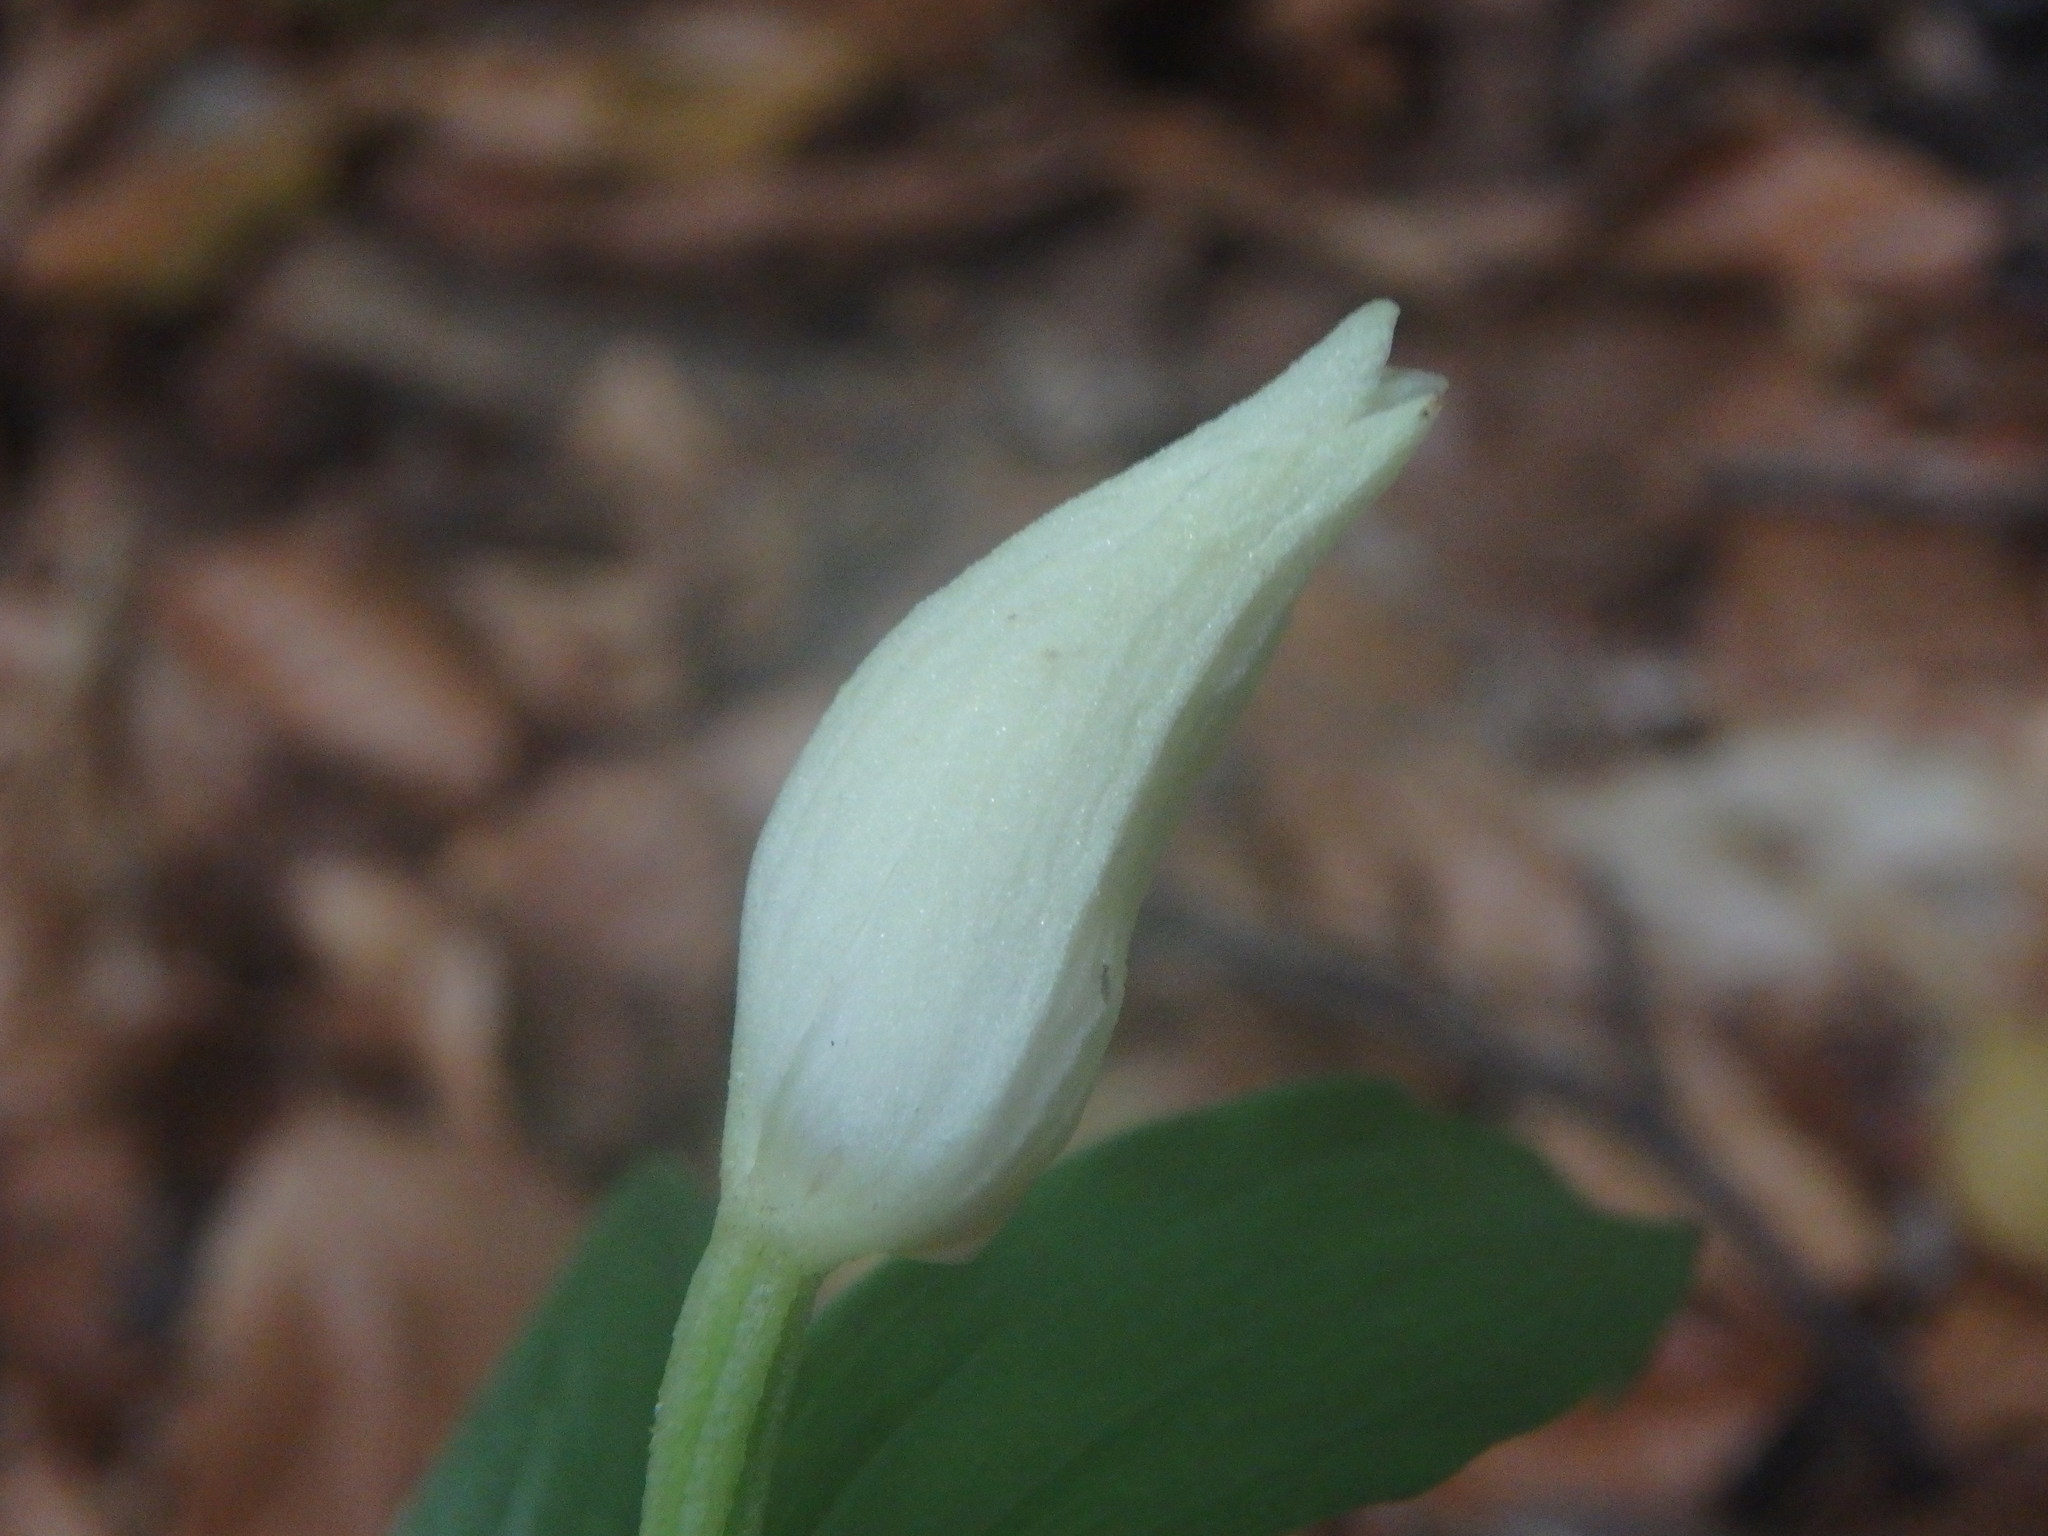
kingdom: Plantae
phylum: Tracheophyta
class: Liliopsida
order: Asparagales
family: Orchidaceae
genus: Cephalanthera
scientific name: Cephalanthera damasonium
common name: White helleborine
